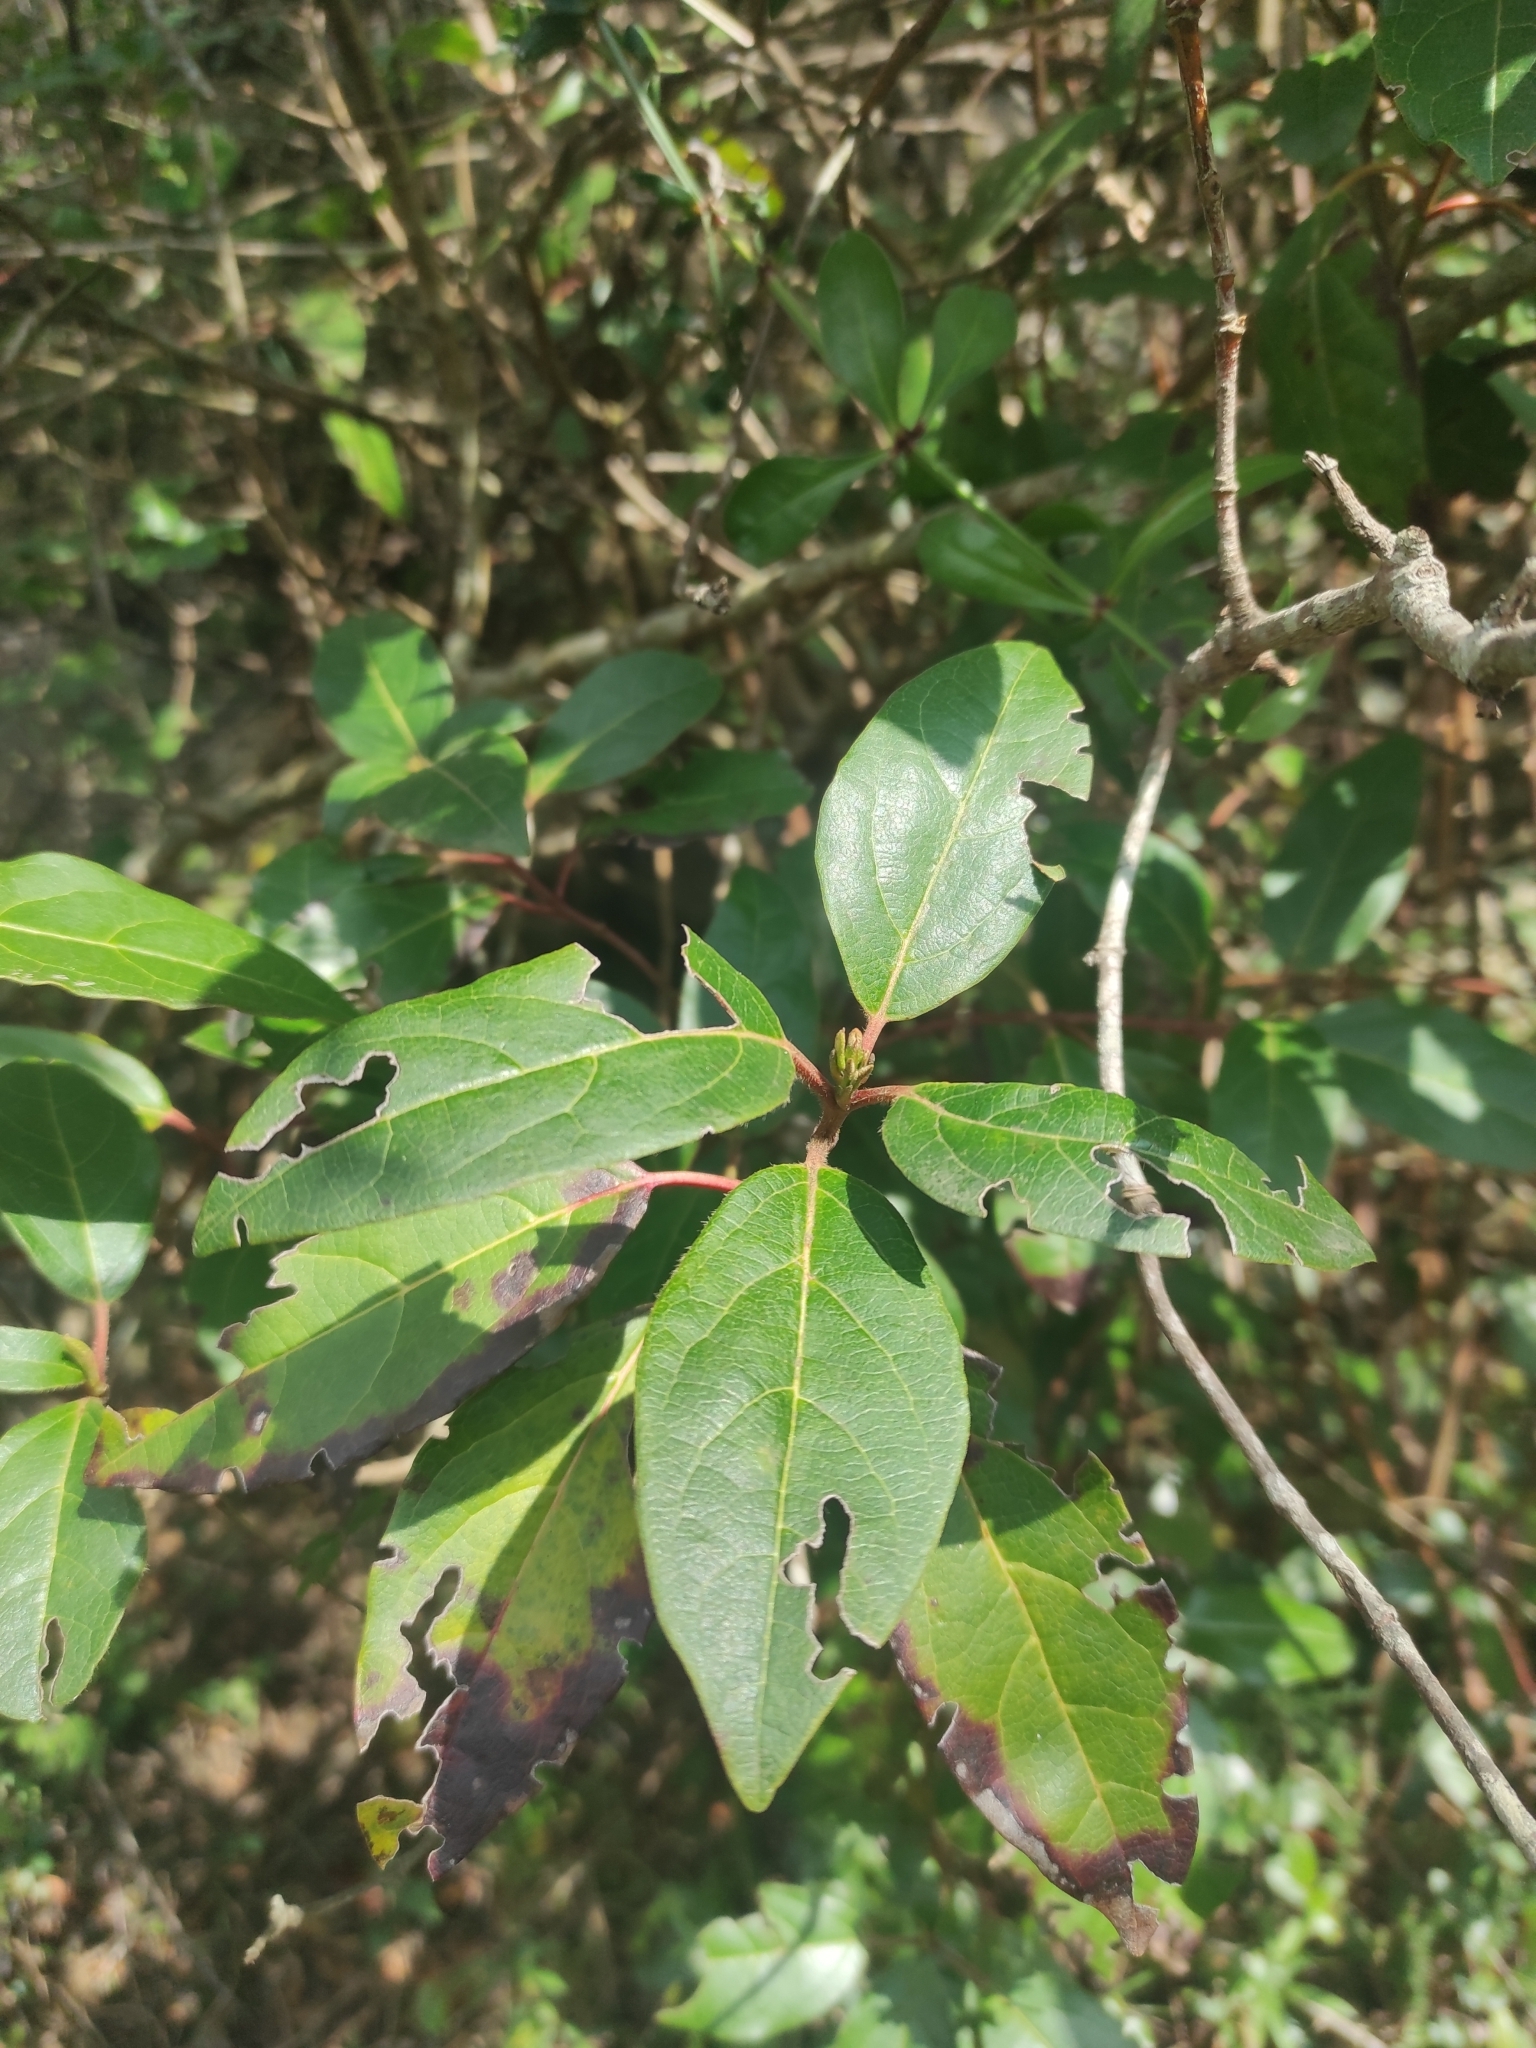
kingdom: Plantae
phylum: Tracheophyta
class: Magnoliopsida
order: Dipsacales
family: Viburnaceae
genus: Viburnum
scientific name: Viburnum tinus
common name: Laurustinus
